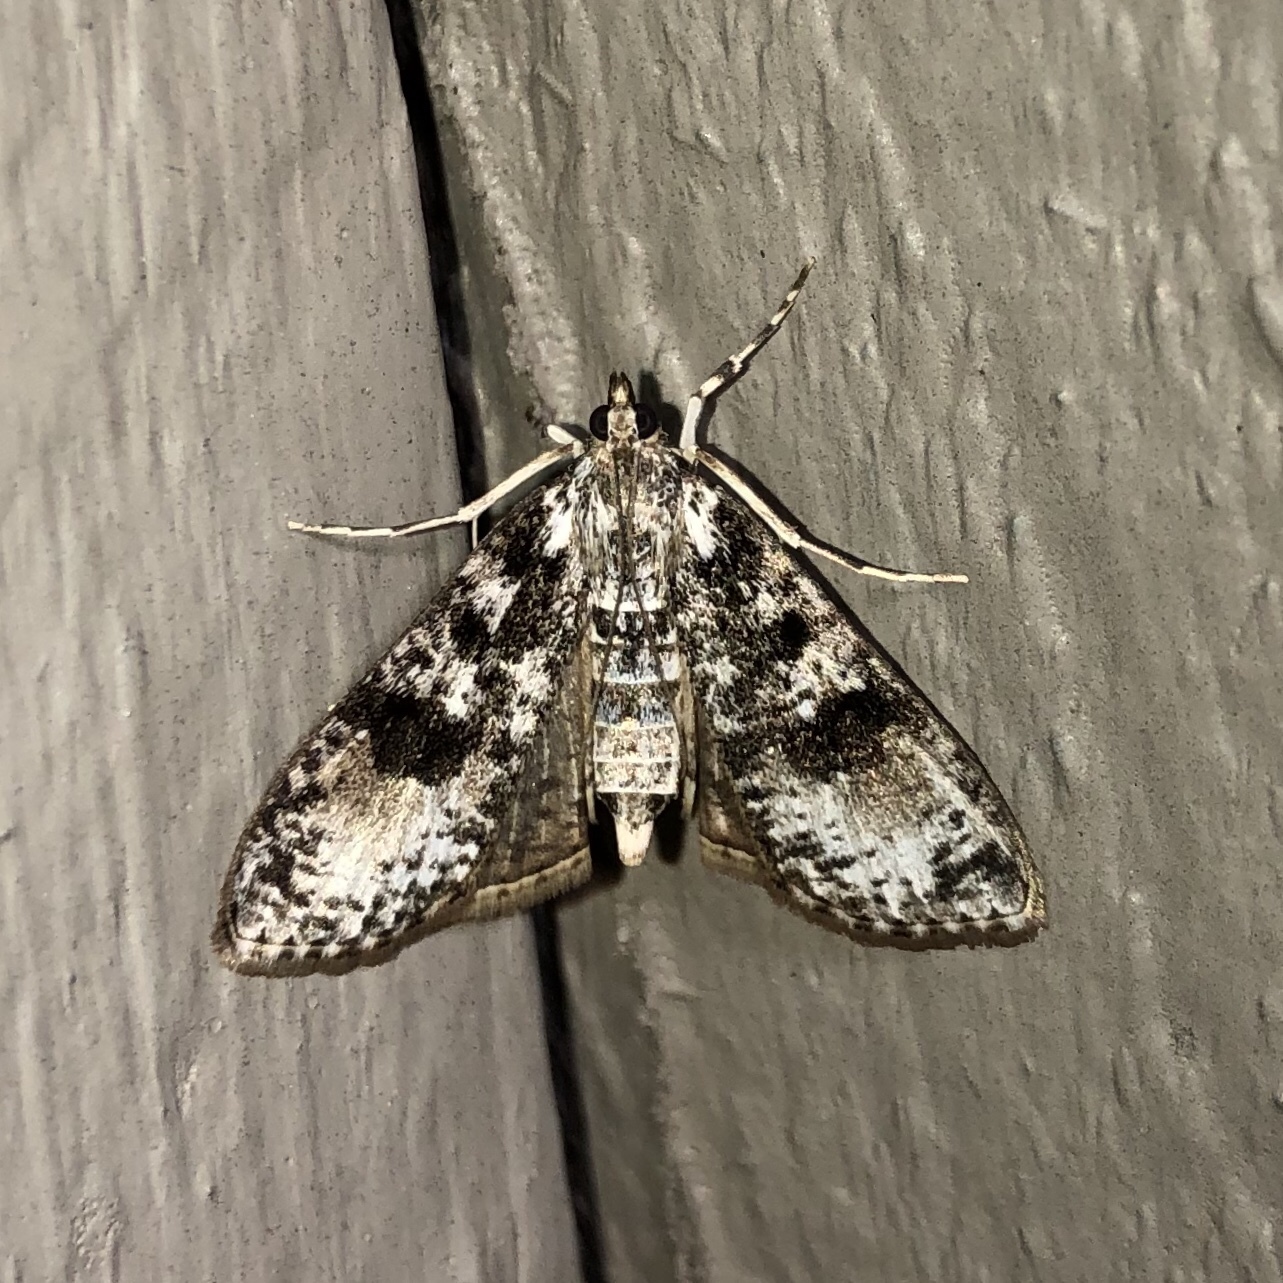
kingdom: Animalia
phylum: Arthropoda
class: Insecta
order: Lepidoptera
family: Crambidae
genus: Palpita
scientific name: Palpita magniferalis
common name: Splendid palpita moth
